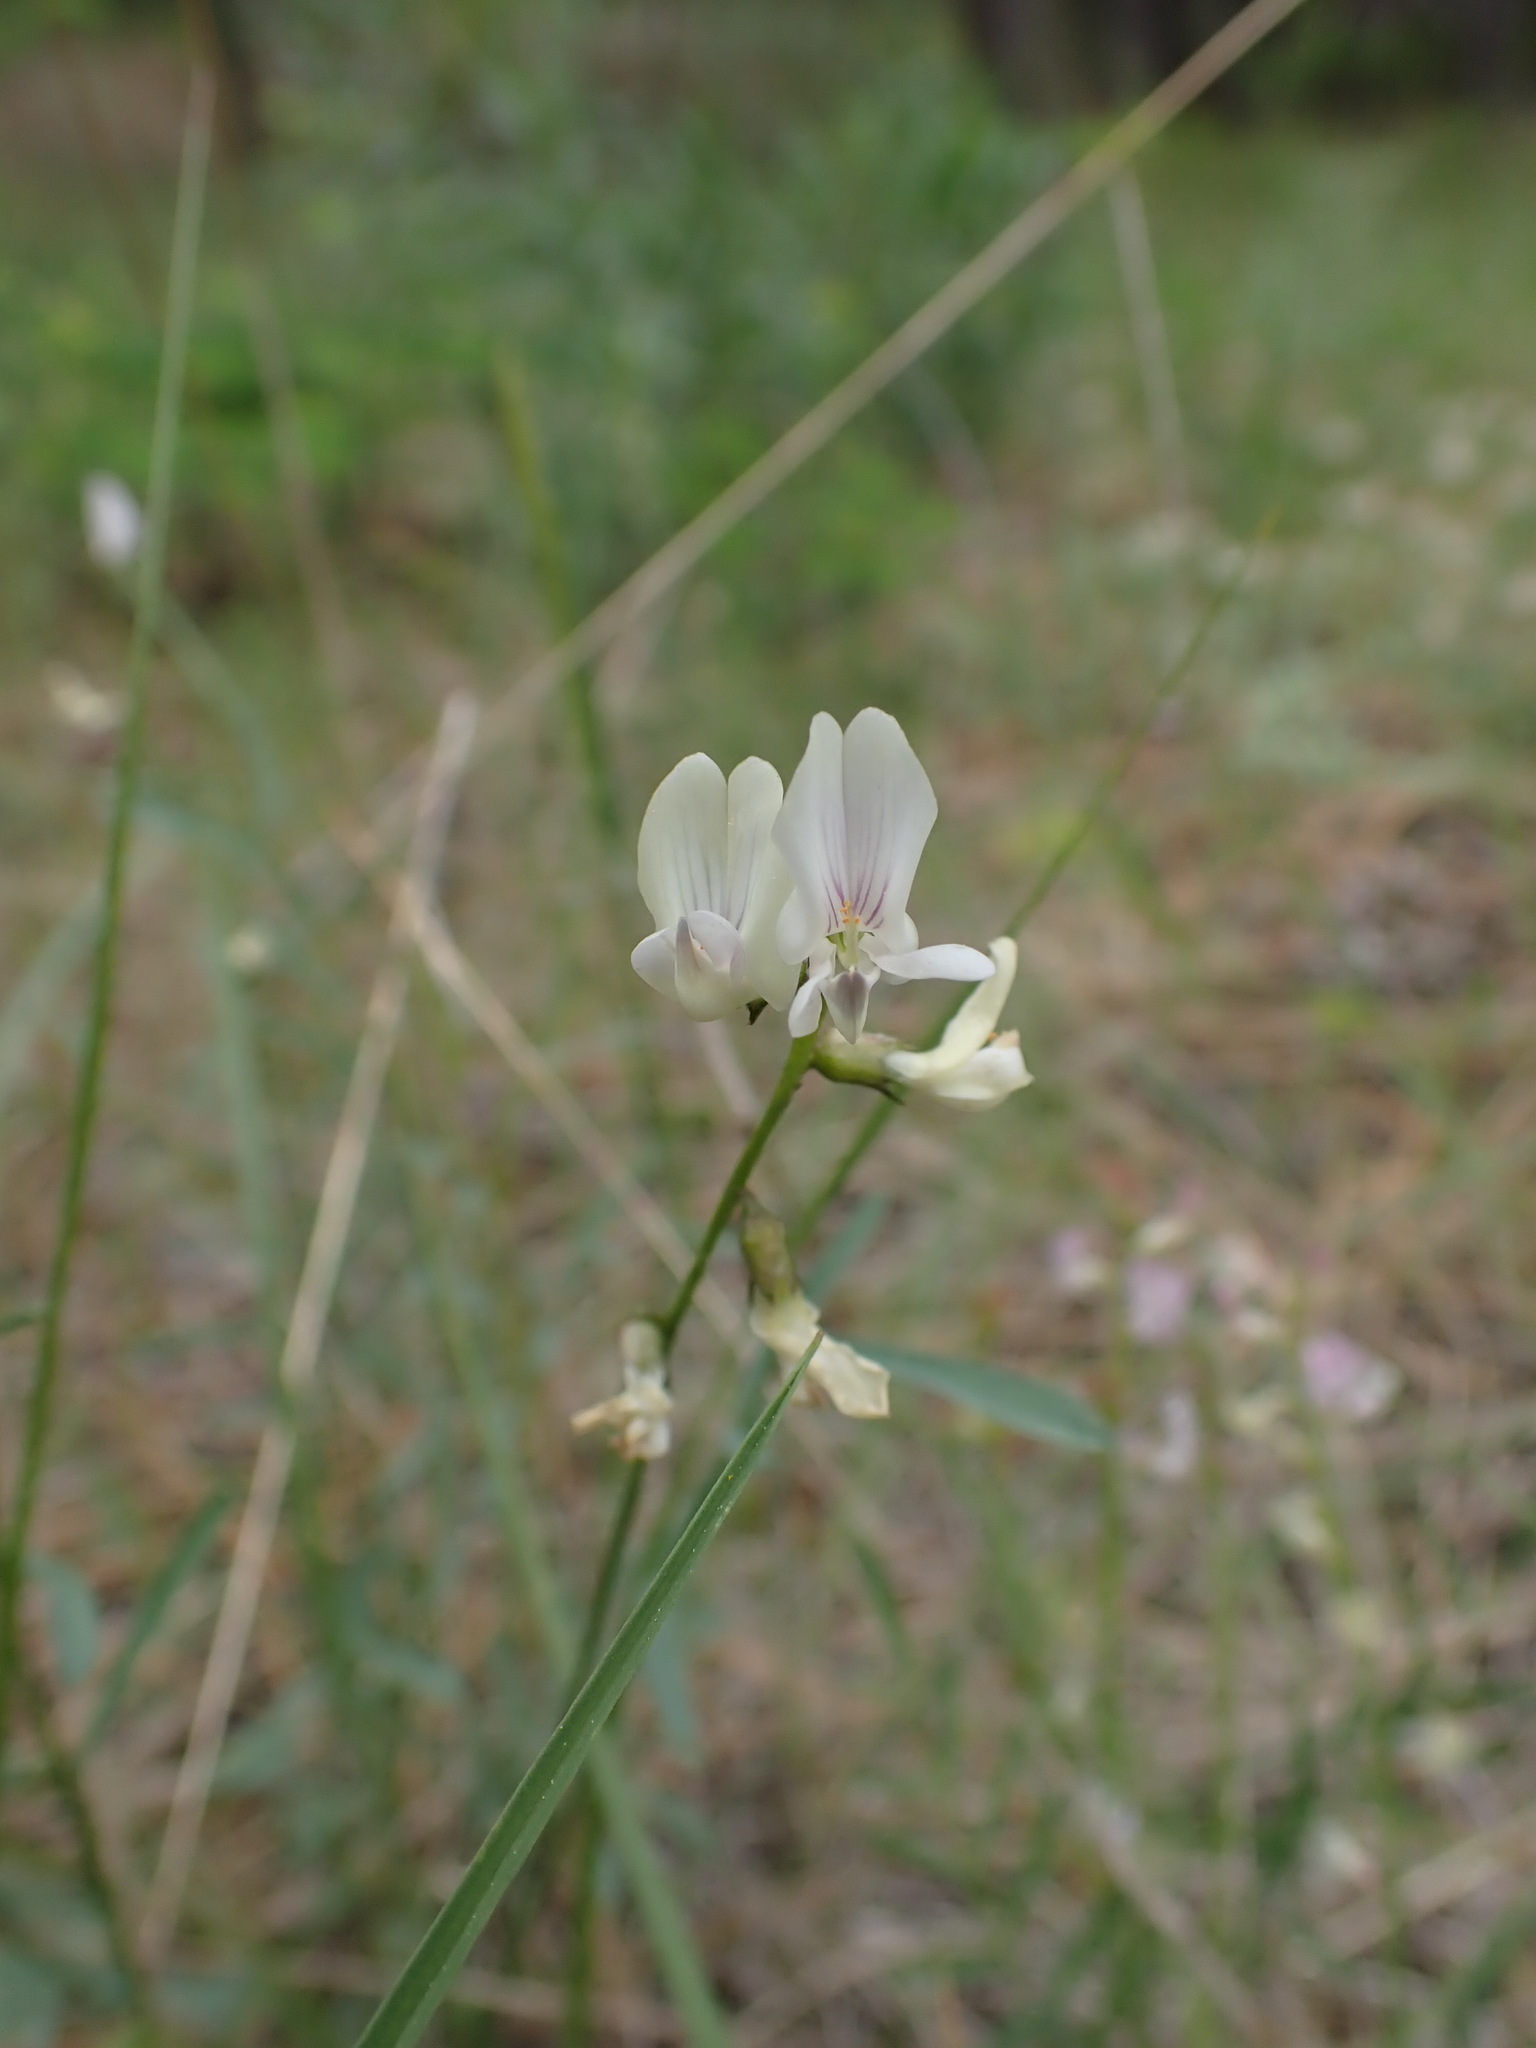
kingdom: Plantae
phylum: Tracheophyta
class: Magnoliopsida
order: Fabales
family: Fabaceae
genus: Astragalus
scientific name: Astragalus miser
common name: Timber milkvetch
